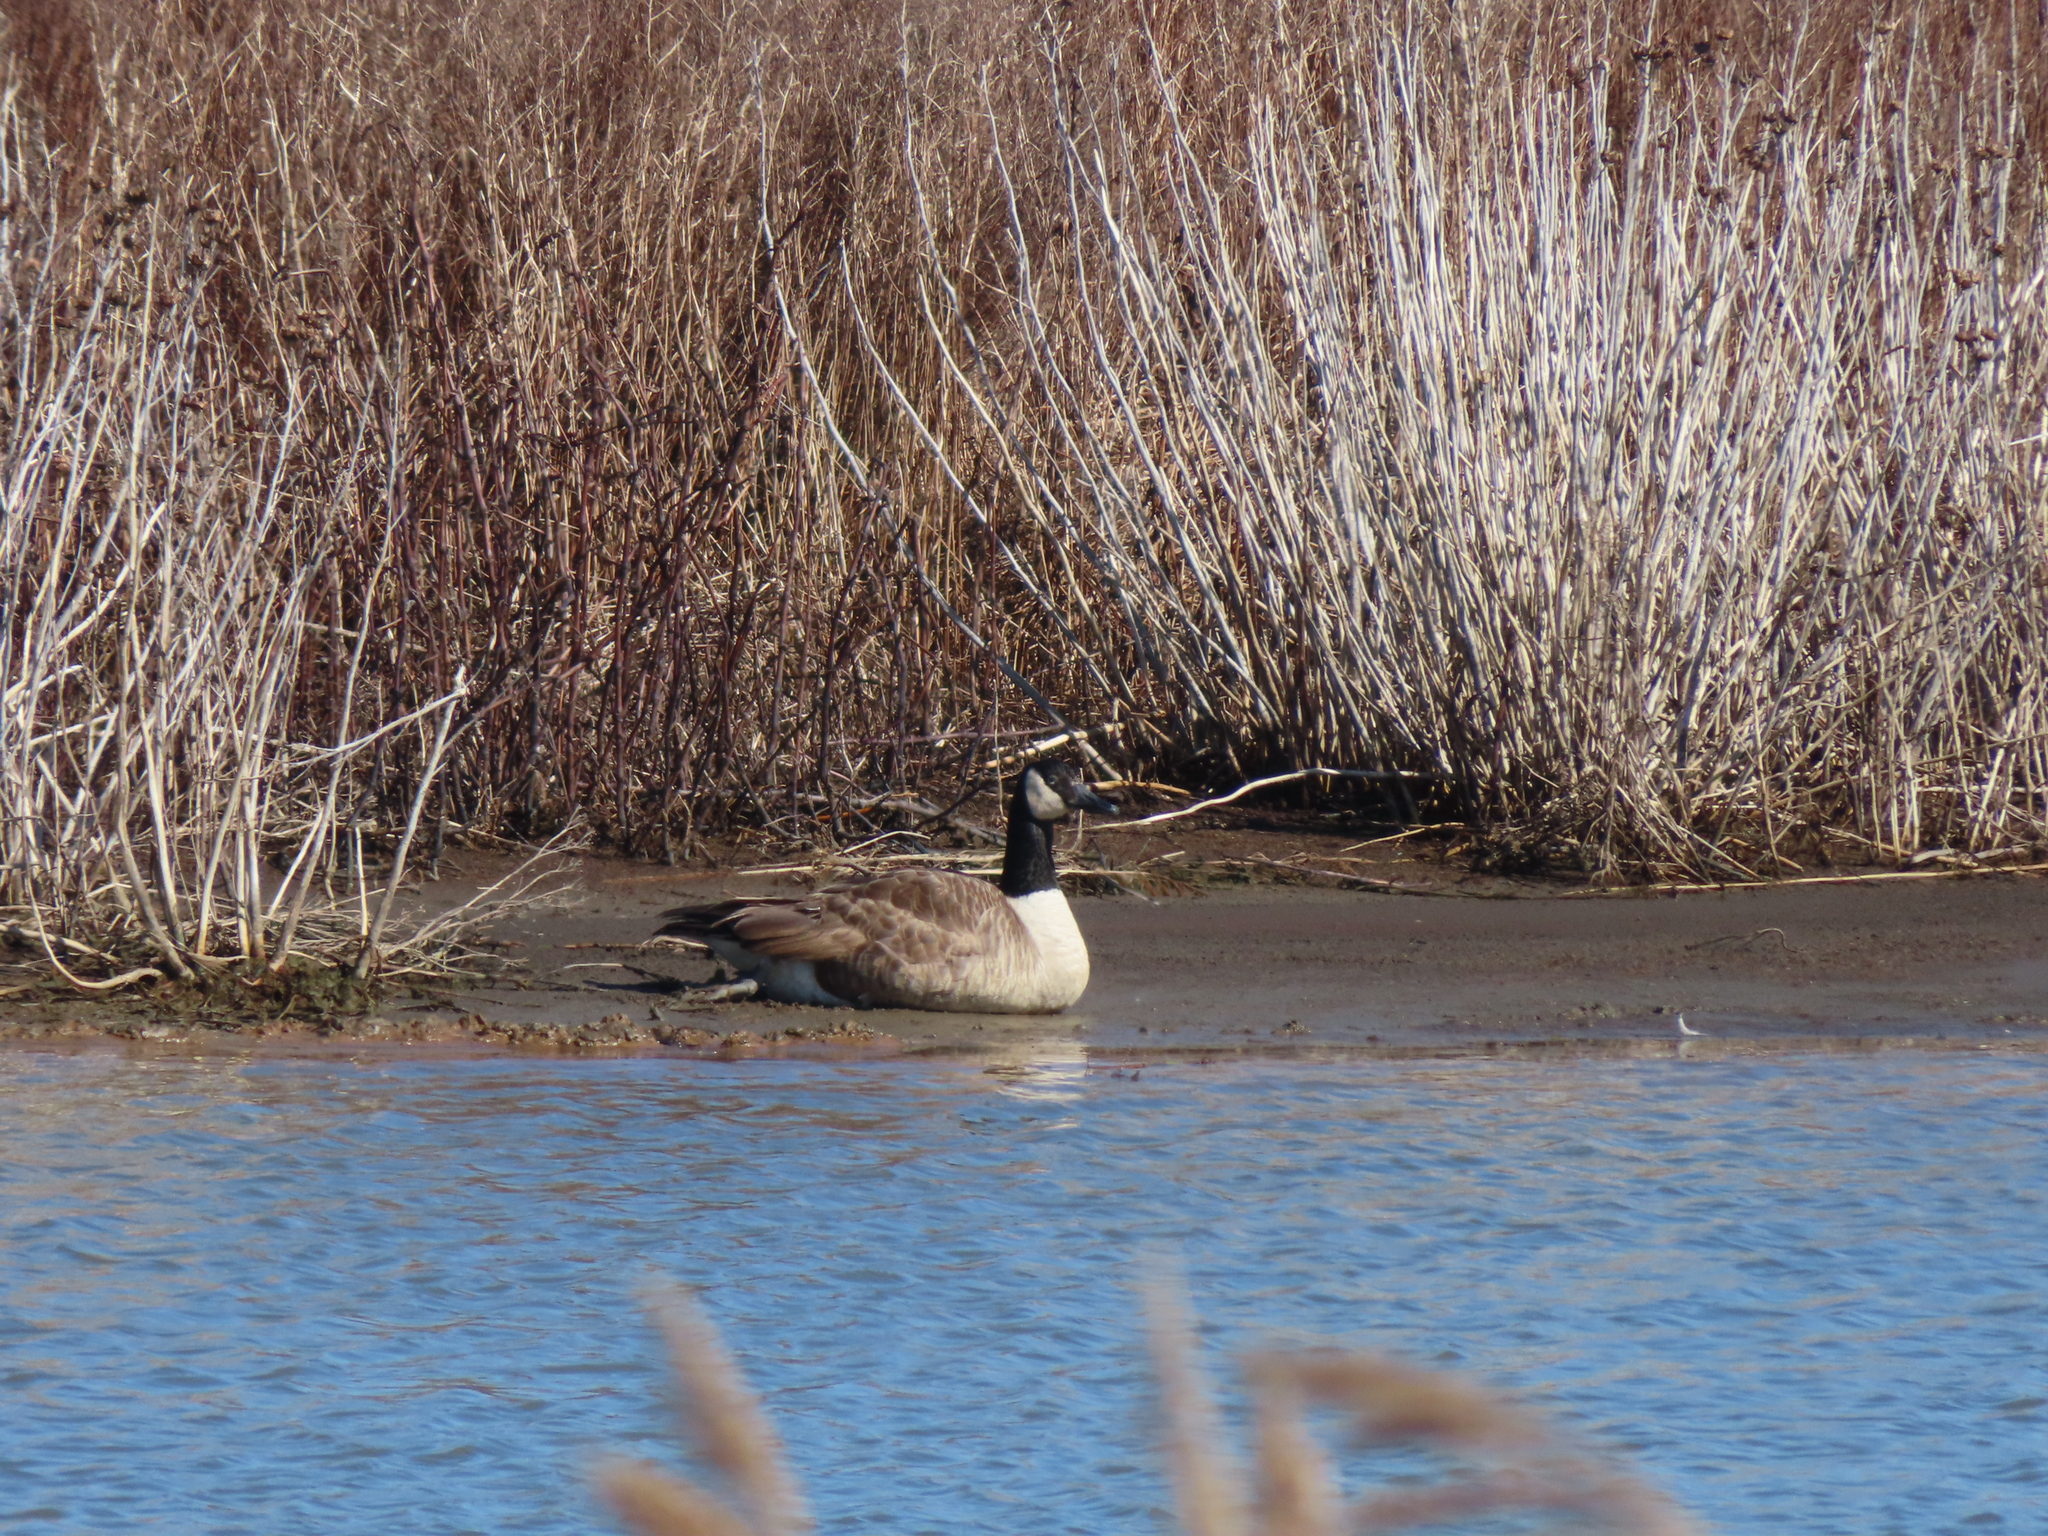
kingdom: Animalia
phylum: Chordata
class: Aves
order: Anseriformes
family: Anatidae
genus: Branta
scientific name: Branta canadensis
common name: Canada goose
